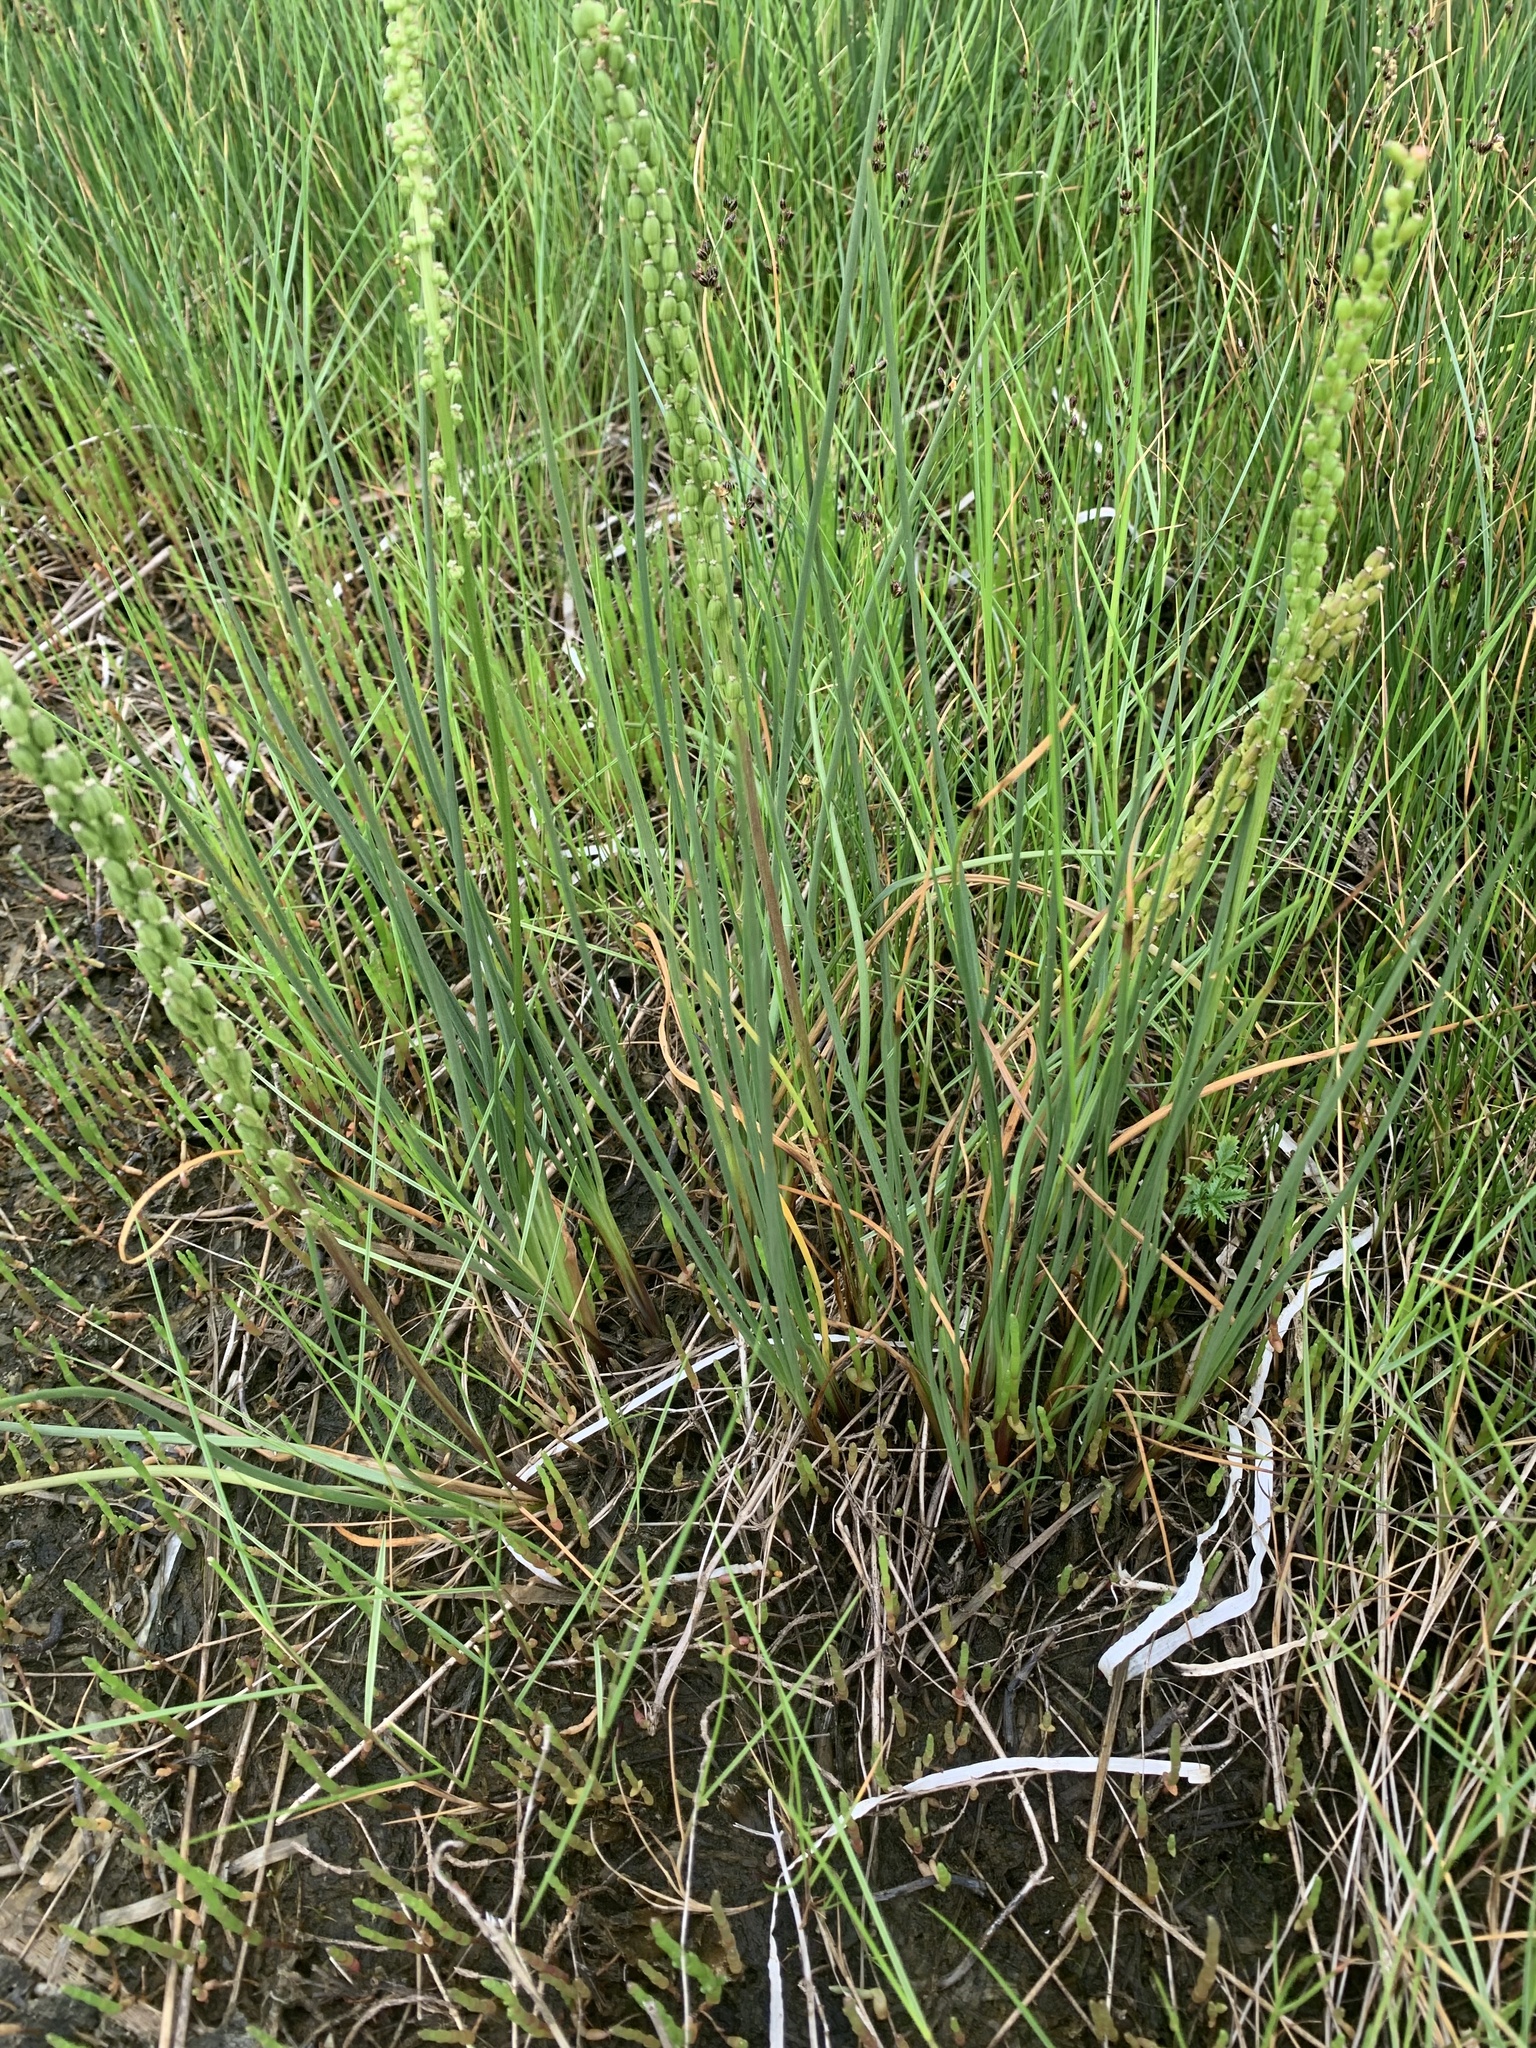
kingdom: Plantae
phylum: Tracheophyta
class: Liliopsida
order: Alismatales
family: Juncaginaceae
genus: Triglochin
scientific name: Triglochin maritima
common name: Sea arrowgrass
